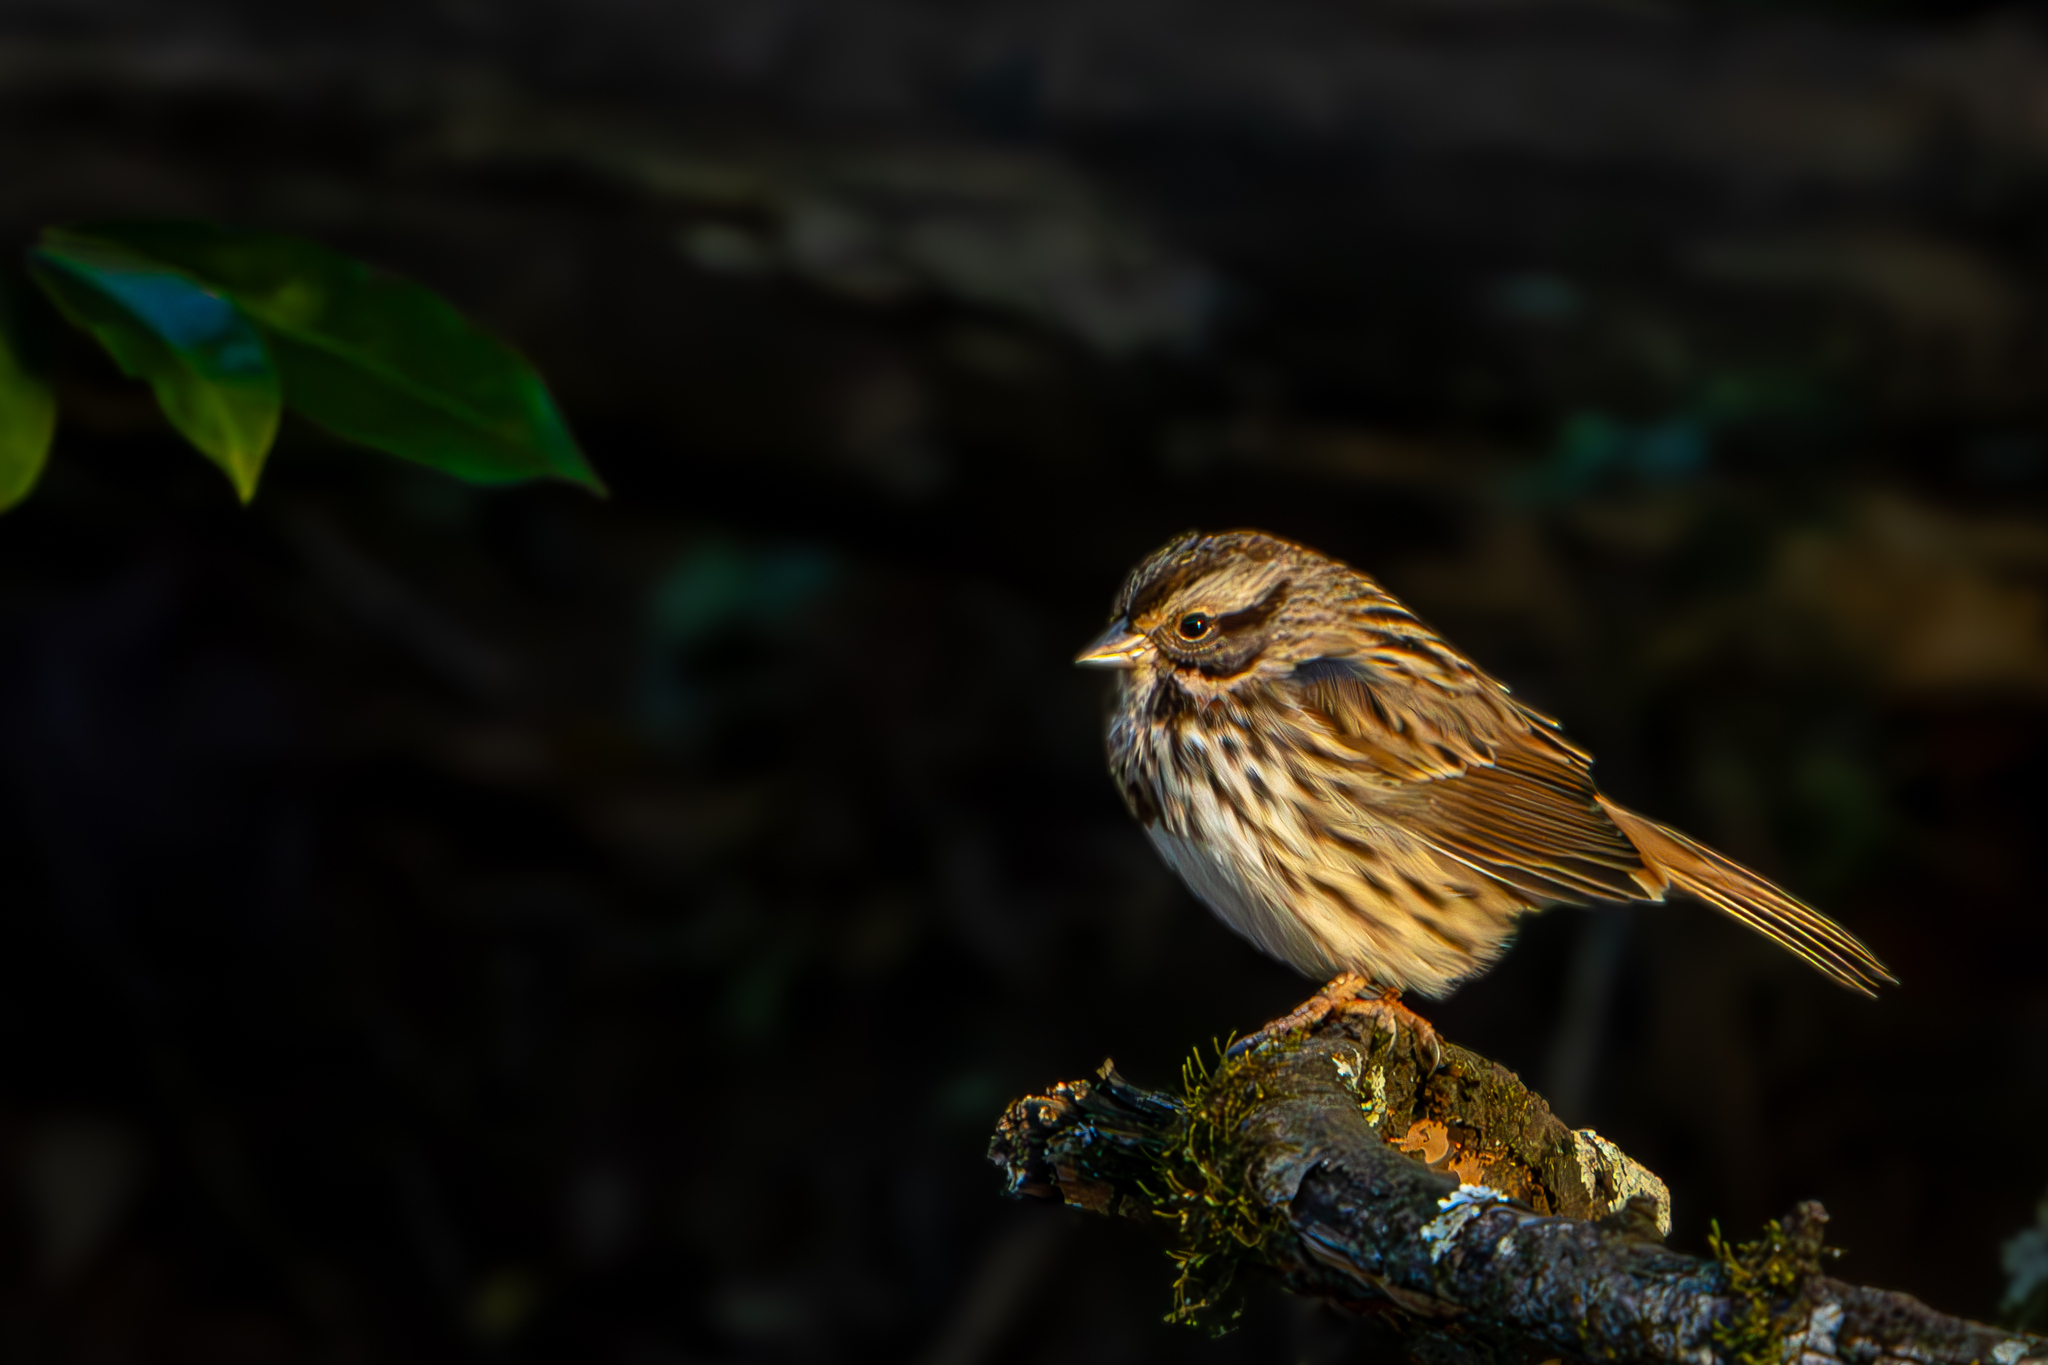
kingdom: Animalia
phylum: Chordata
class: Aves
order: Passeriformes
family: Passerellidae
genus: Melospiza
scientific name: Melospiza melodia
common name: Song sparrow
